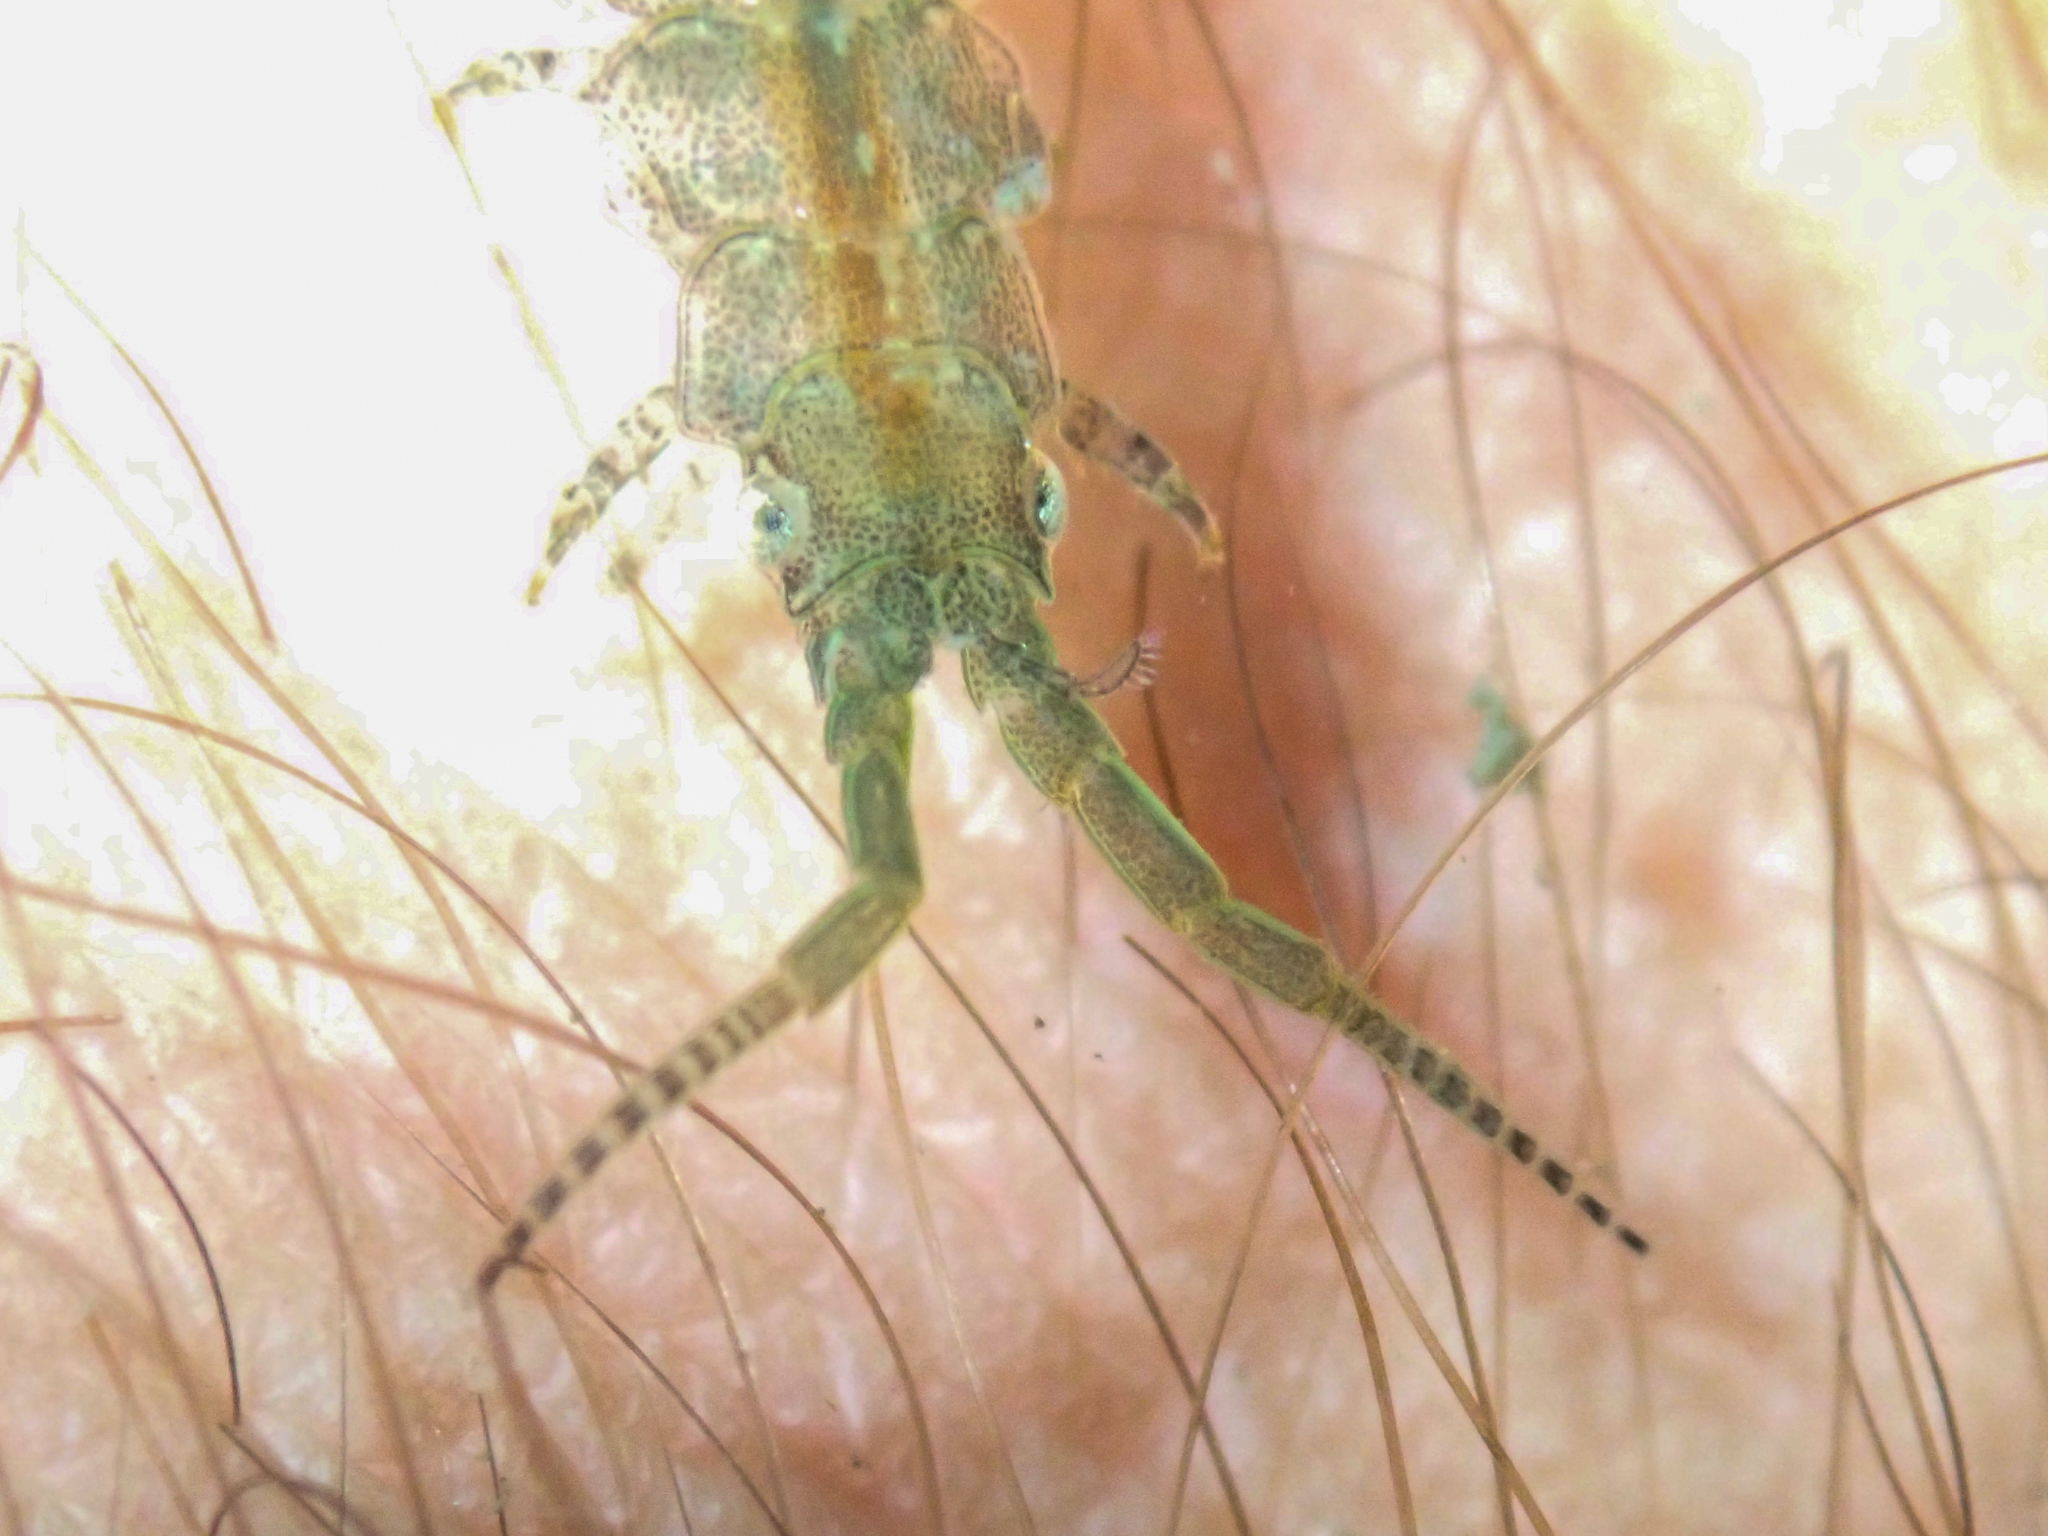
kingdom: Animalia
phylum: Arthropoda
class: Malacostraca
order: Isopoda
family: Idoteidae
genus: Pentidotea
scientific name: Pentidotea resecata
